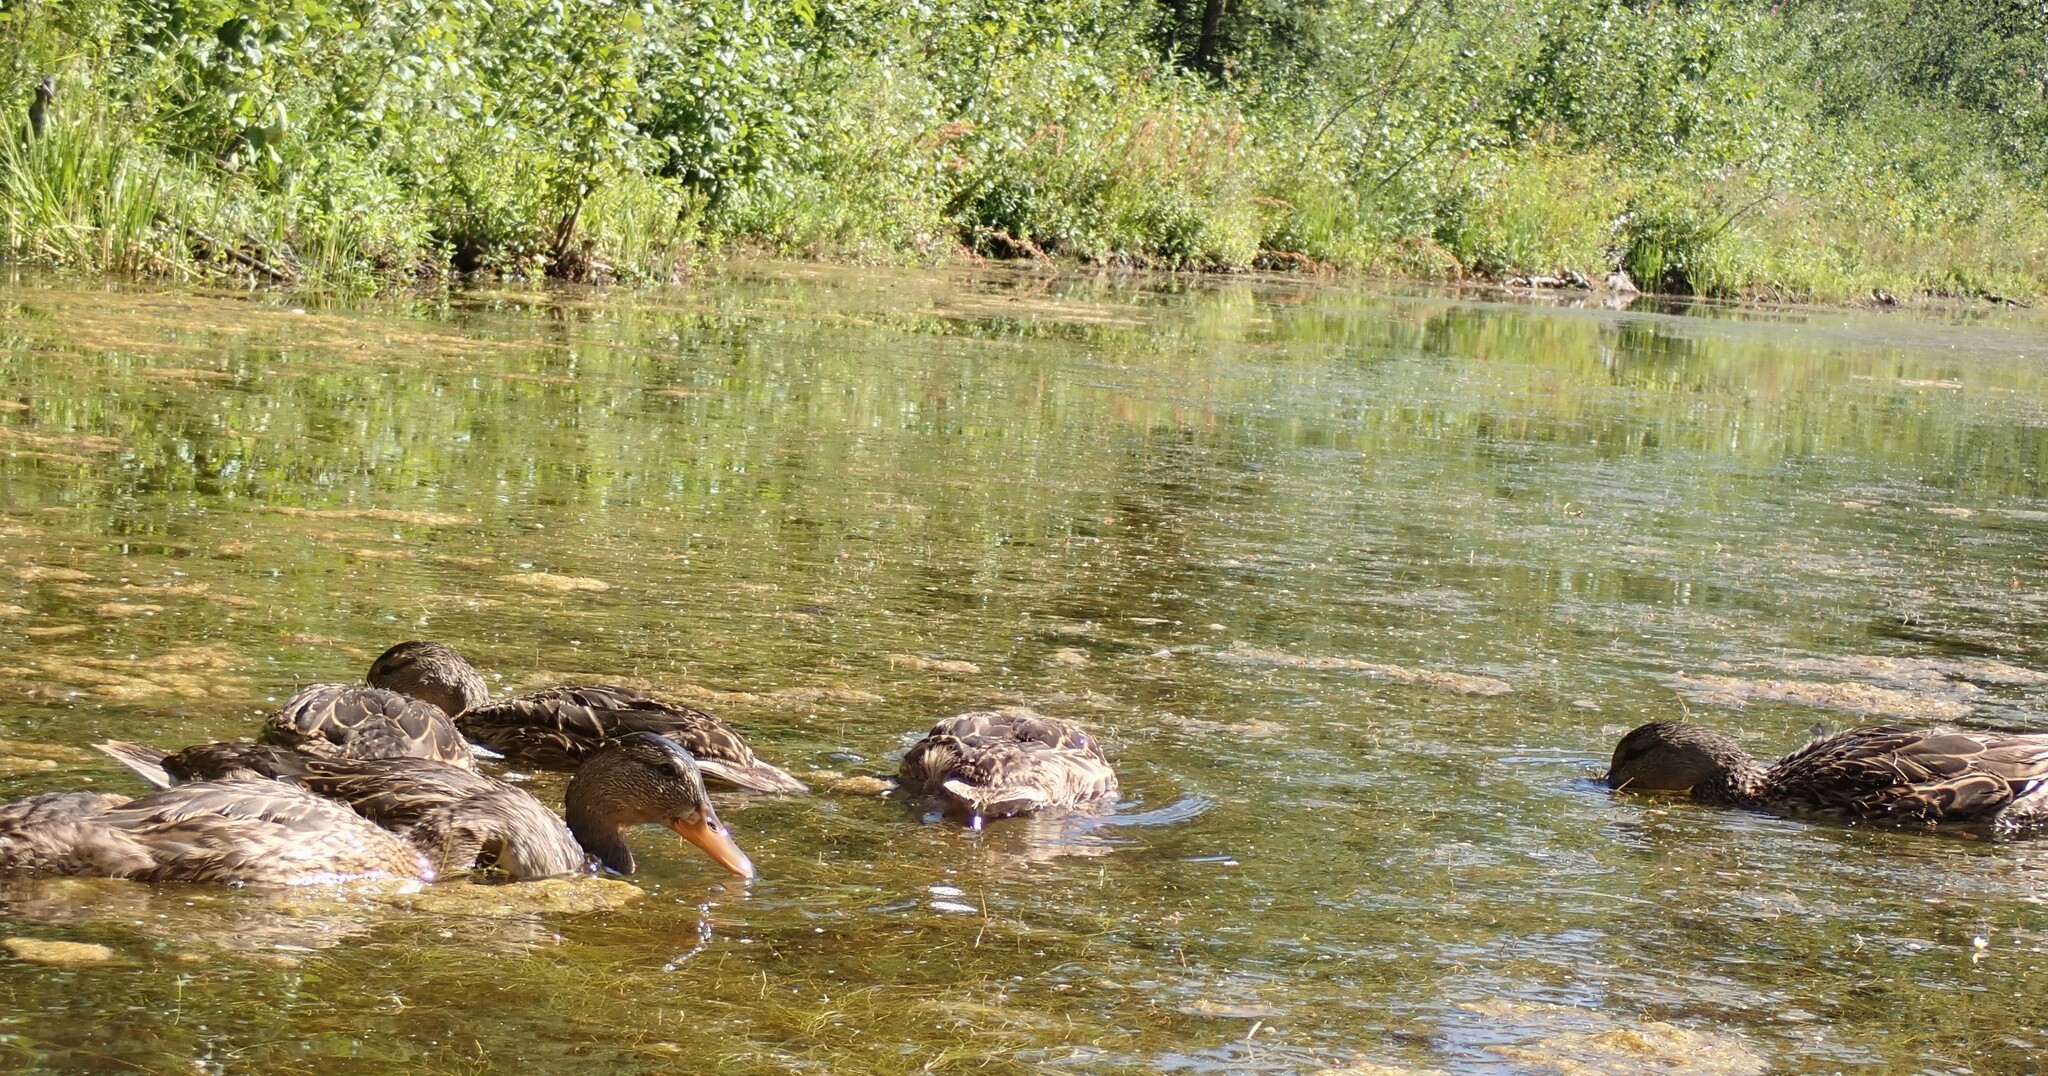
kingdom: Animalia
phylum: Chordata
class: Aves
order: Anseriformes
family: Anatidae
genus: Anas
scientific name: Anas platyrhynchos
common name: Mallard
